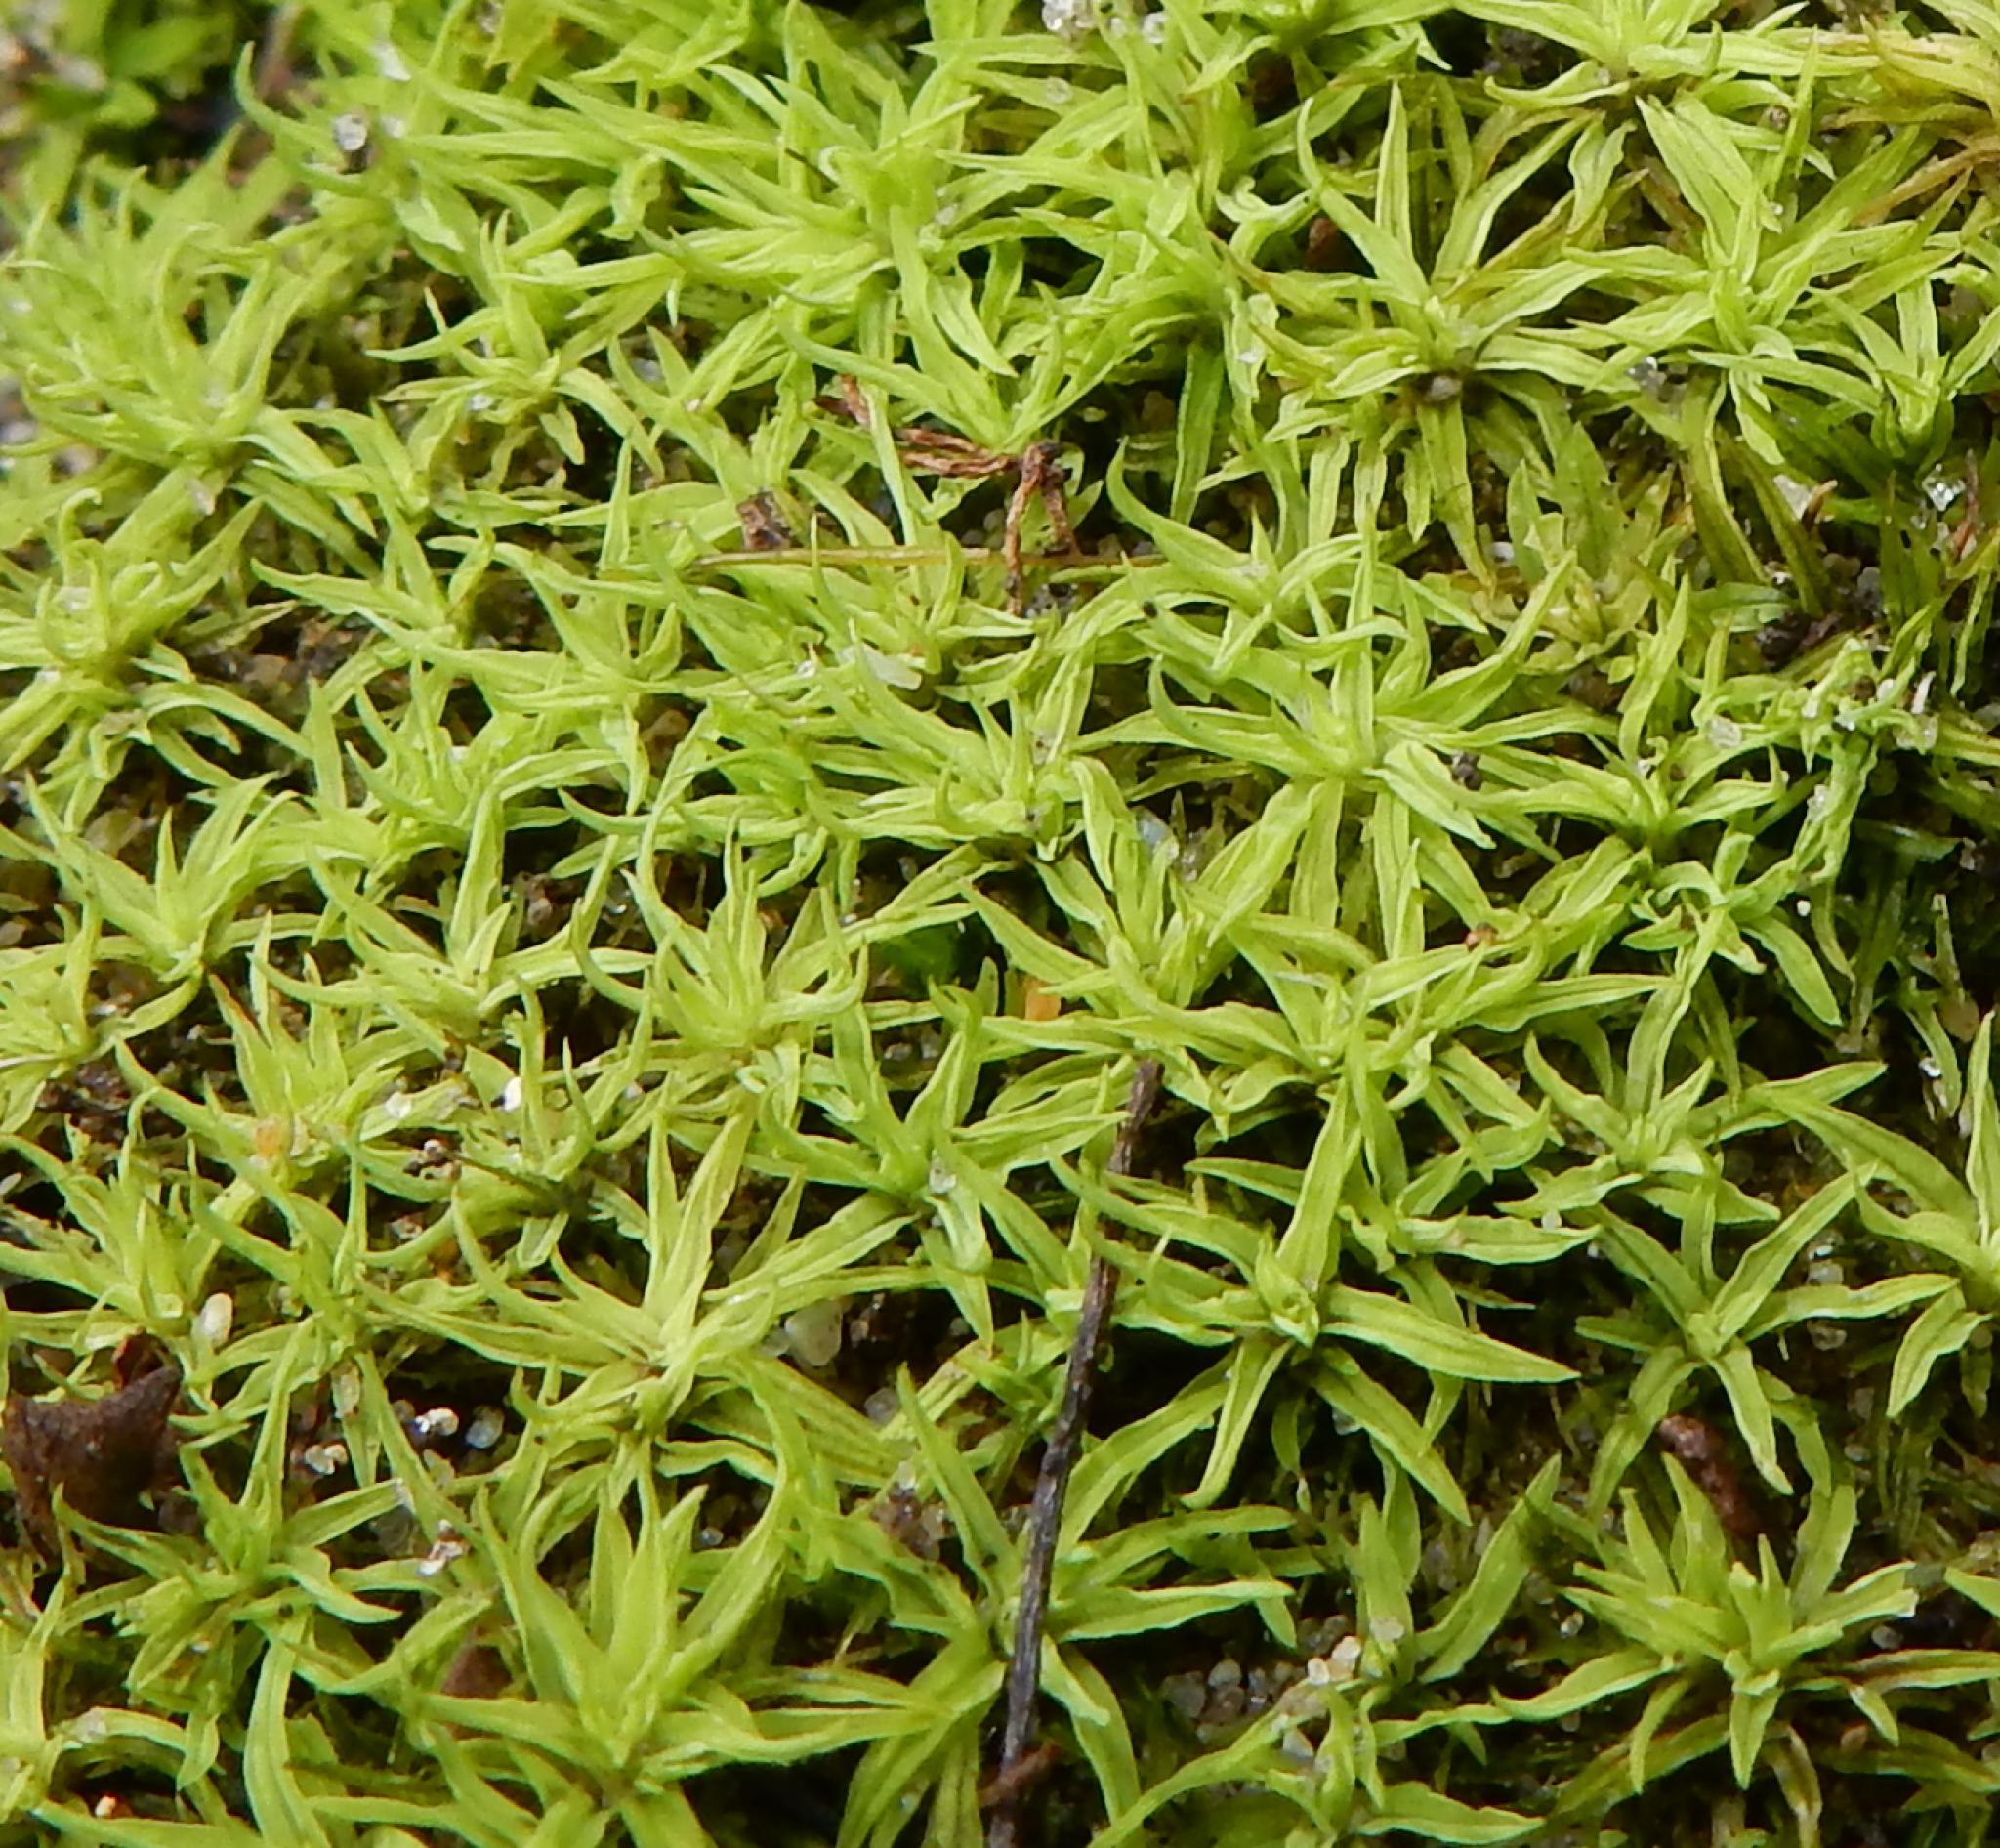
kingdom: Plantae
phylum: Bryophyta
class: Bryopsida
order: Pottiales
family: Pottiaceae
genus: Trichostomum
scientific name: Trichostomum brachydontium
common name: Variable crisp-moss
